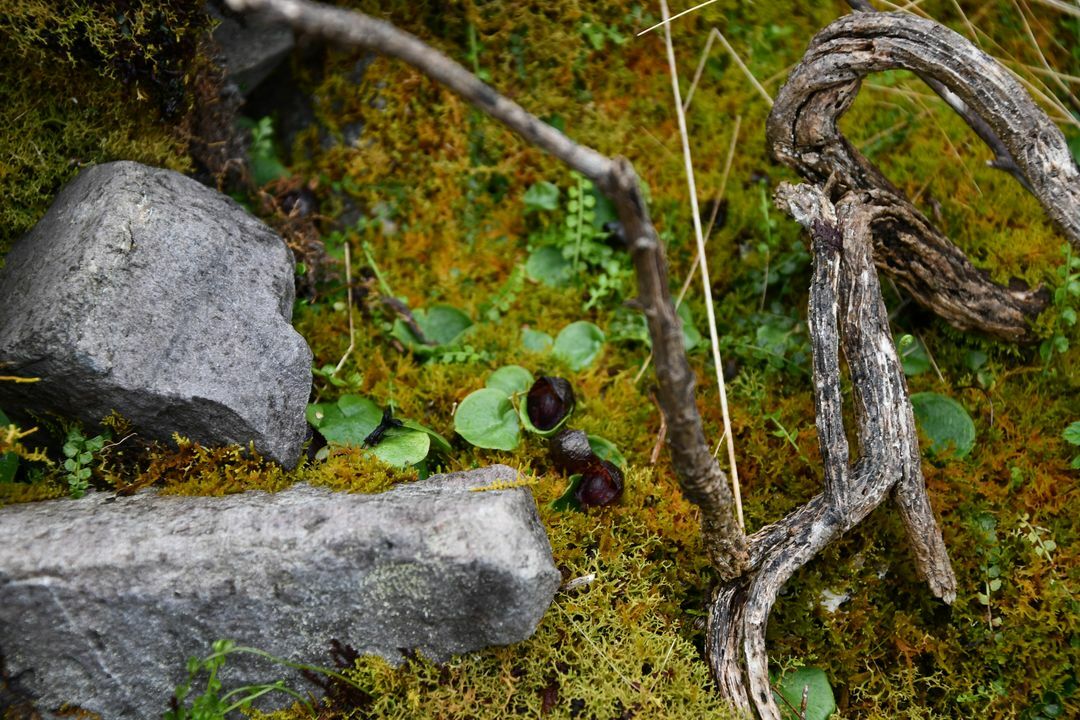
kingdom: Plantae
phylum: Tracheophyta
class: Liliopsida
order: Asparagales
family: Orchidaceae
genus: Corybas
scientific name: Corybas recurvus
